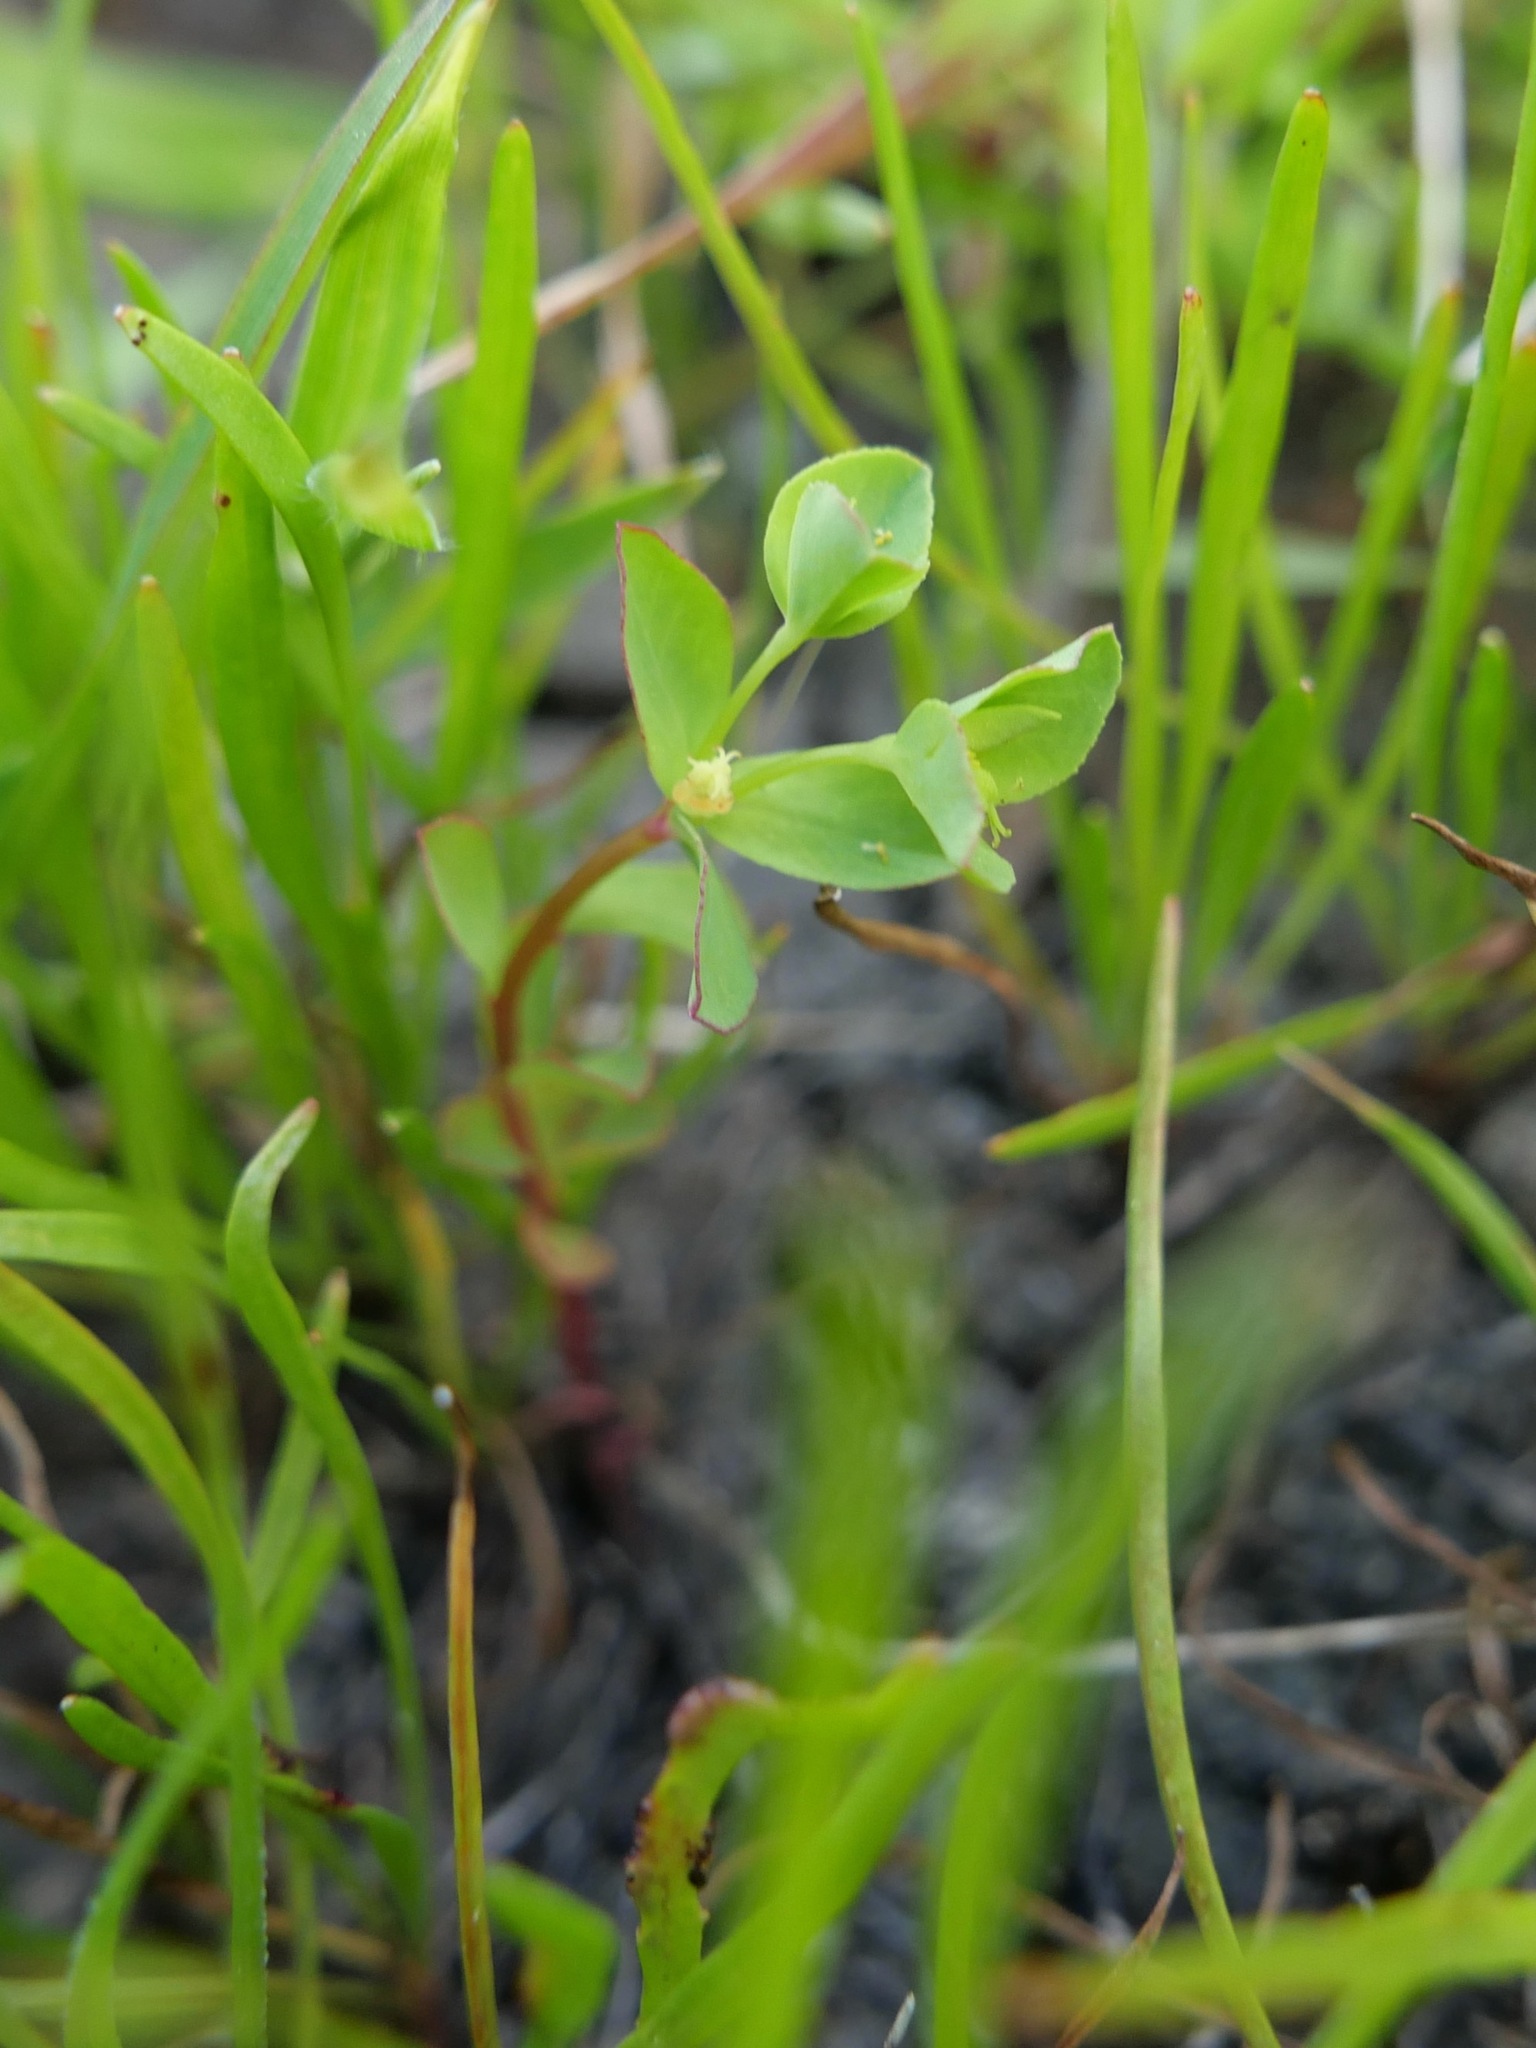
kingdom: Plantae
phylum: Tracheophyta
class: Magnoliopsida
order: Malpighiales
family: Euphorbiaceae
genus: Euphorbia
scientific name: Euphorbia spathulata
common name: Blunt spurge
